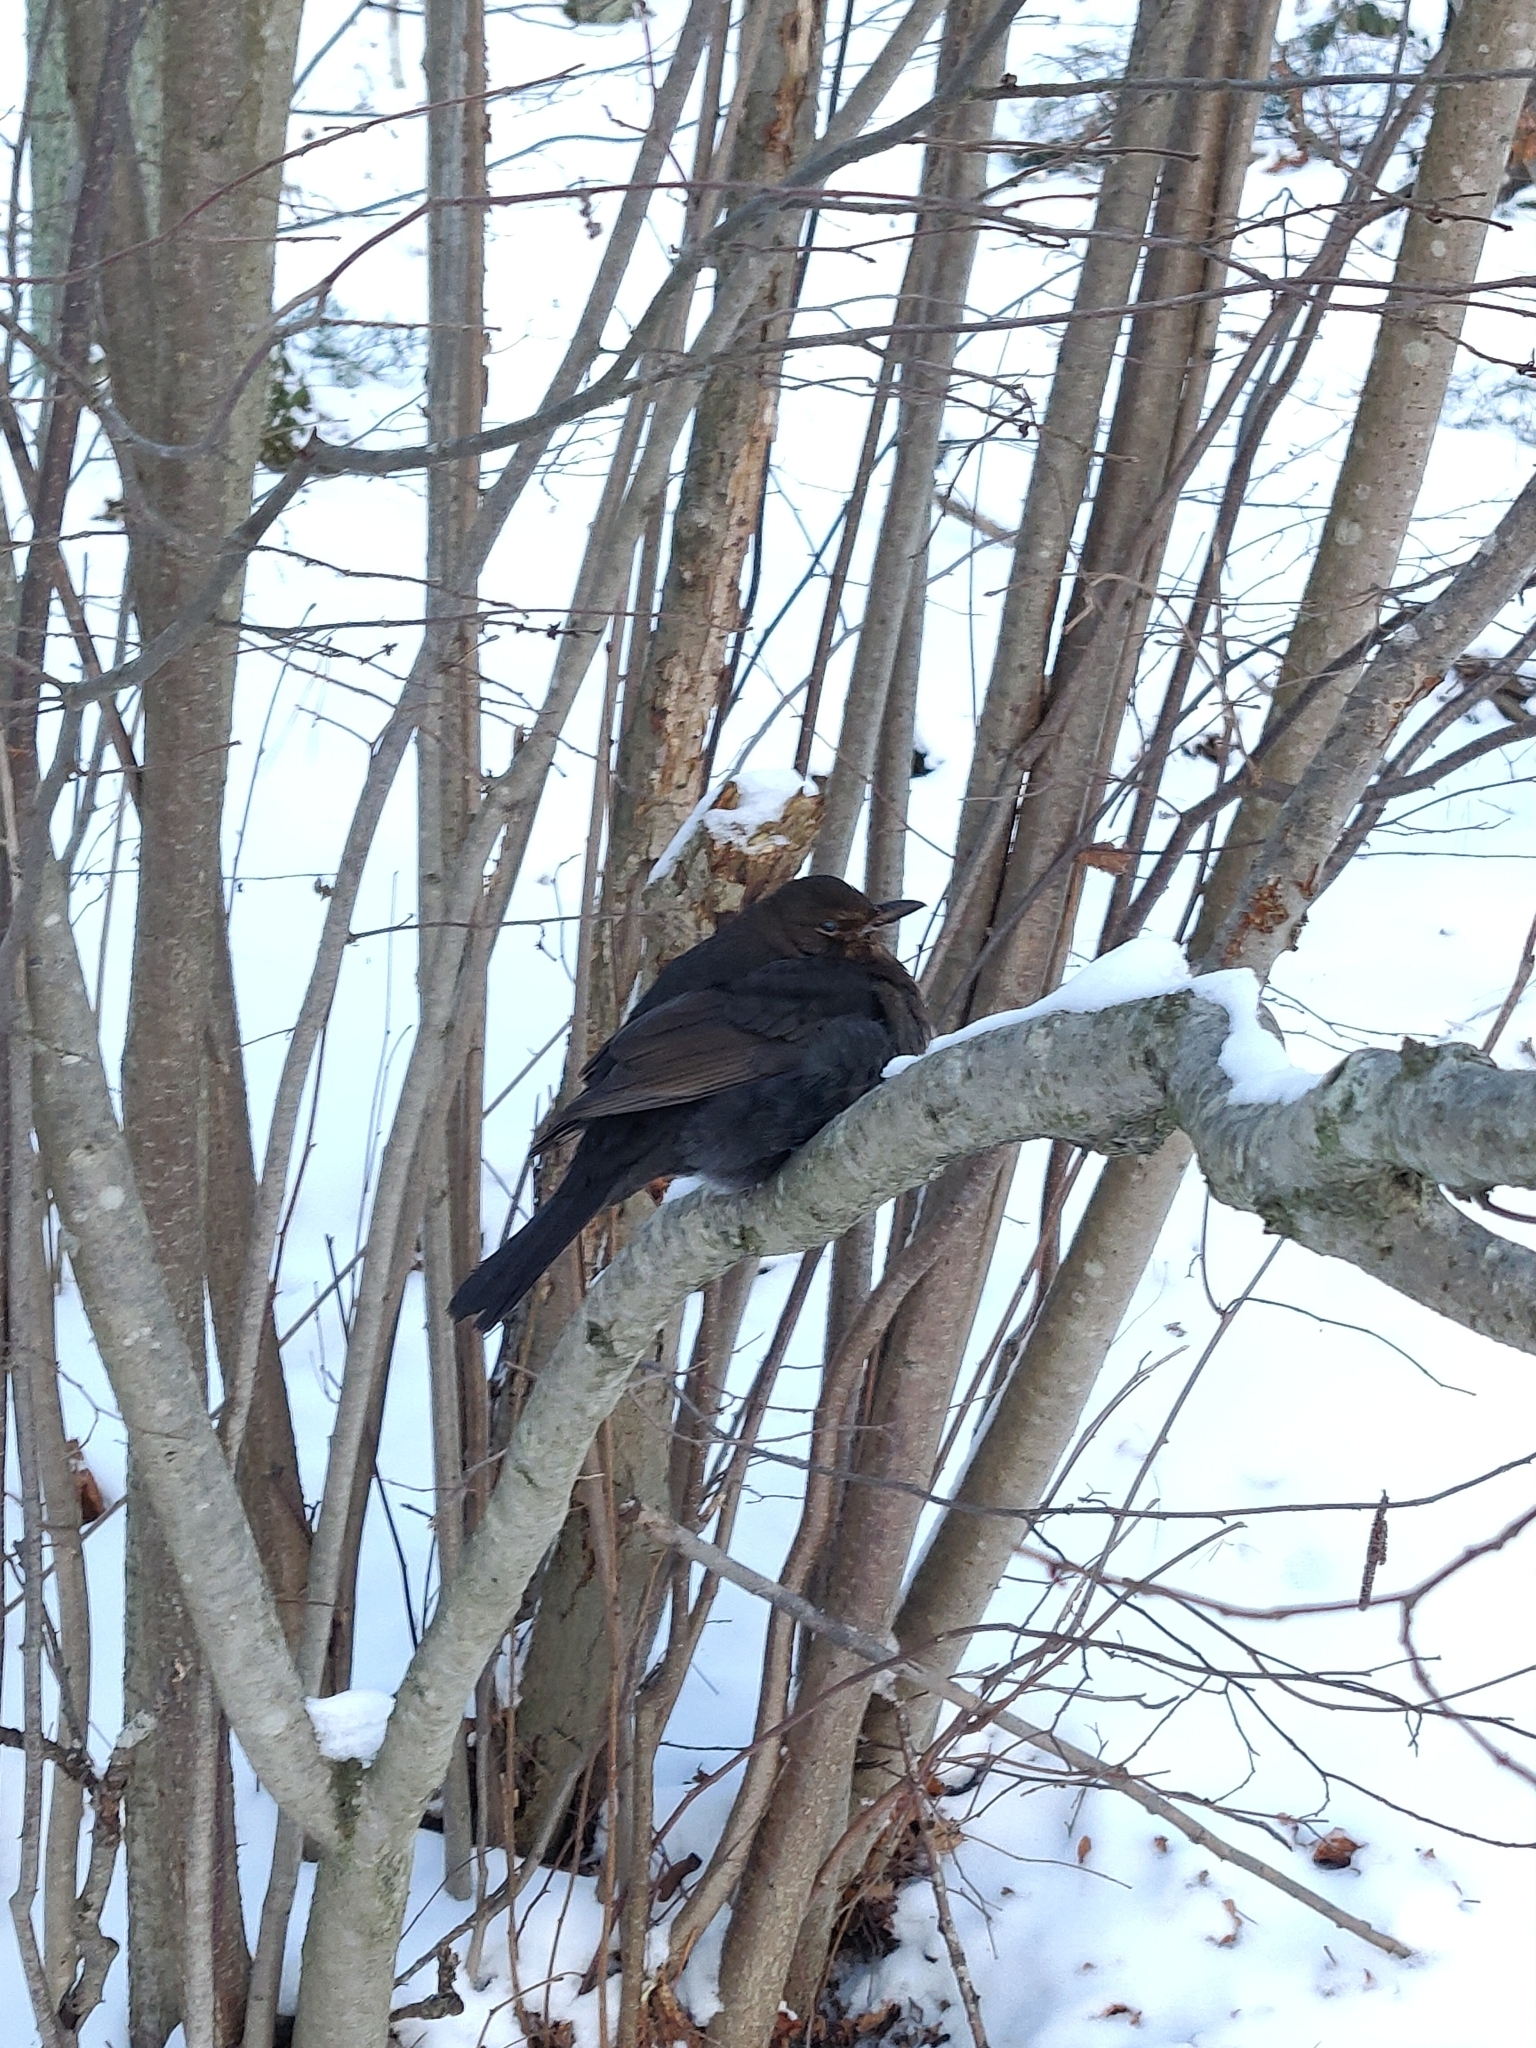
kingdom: Animalia
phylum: Chordata
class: Aves
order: Passeriformes
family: Turdidae
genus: Turdus
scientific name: Turdus merula
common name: Common blackbird
